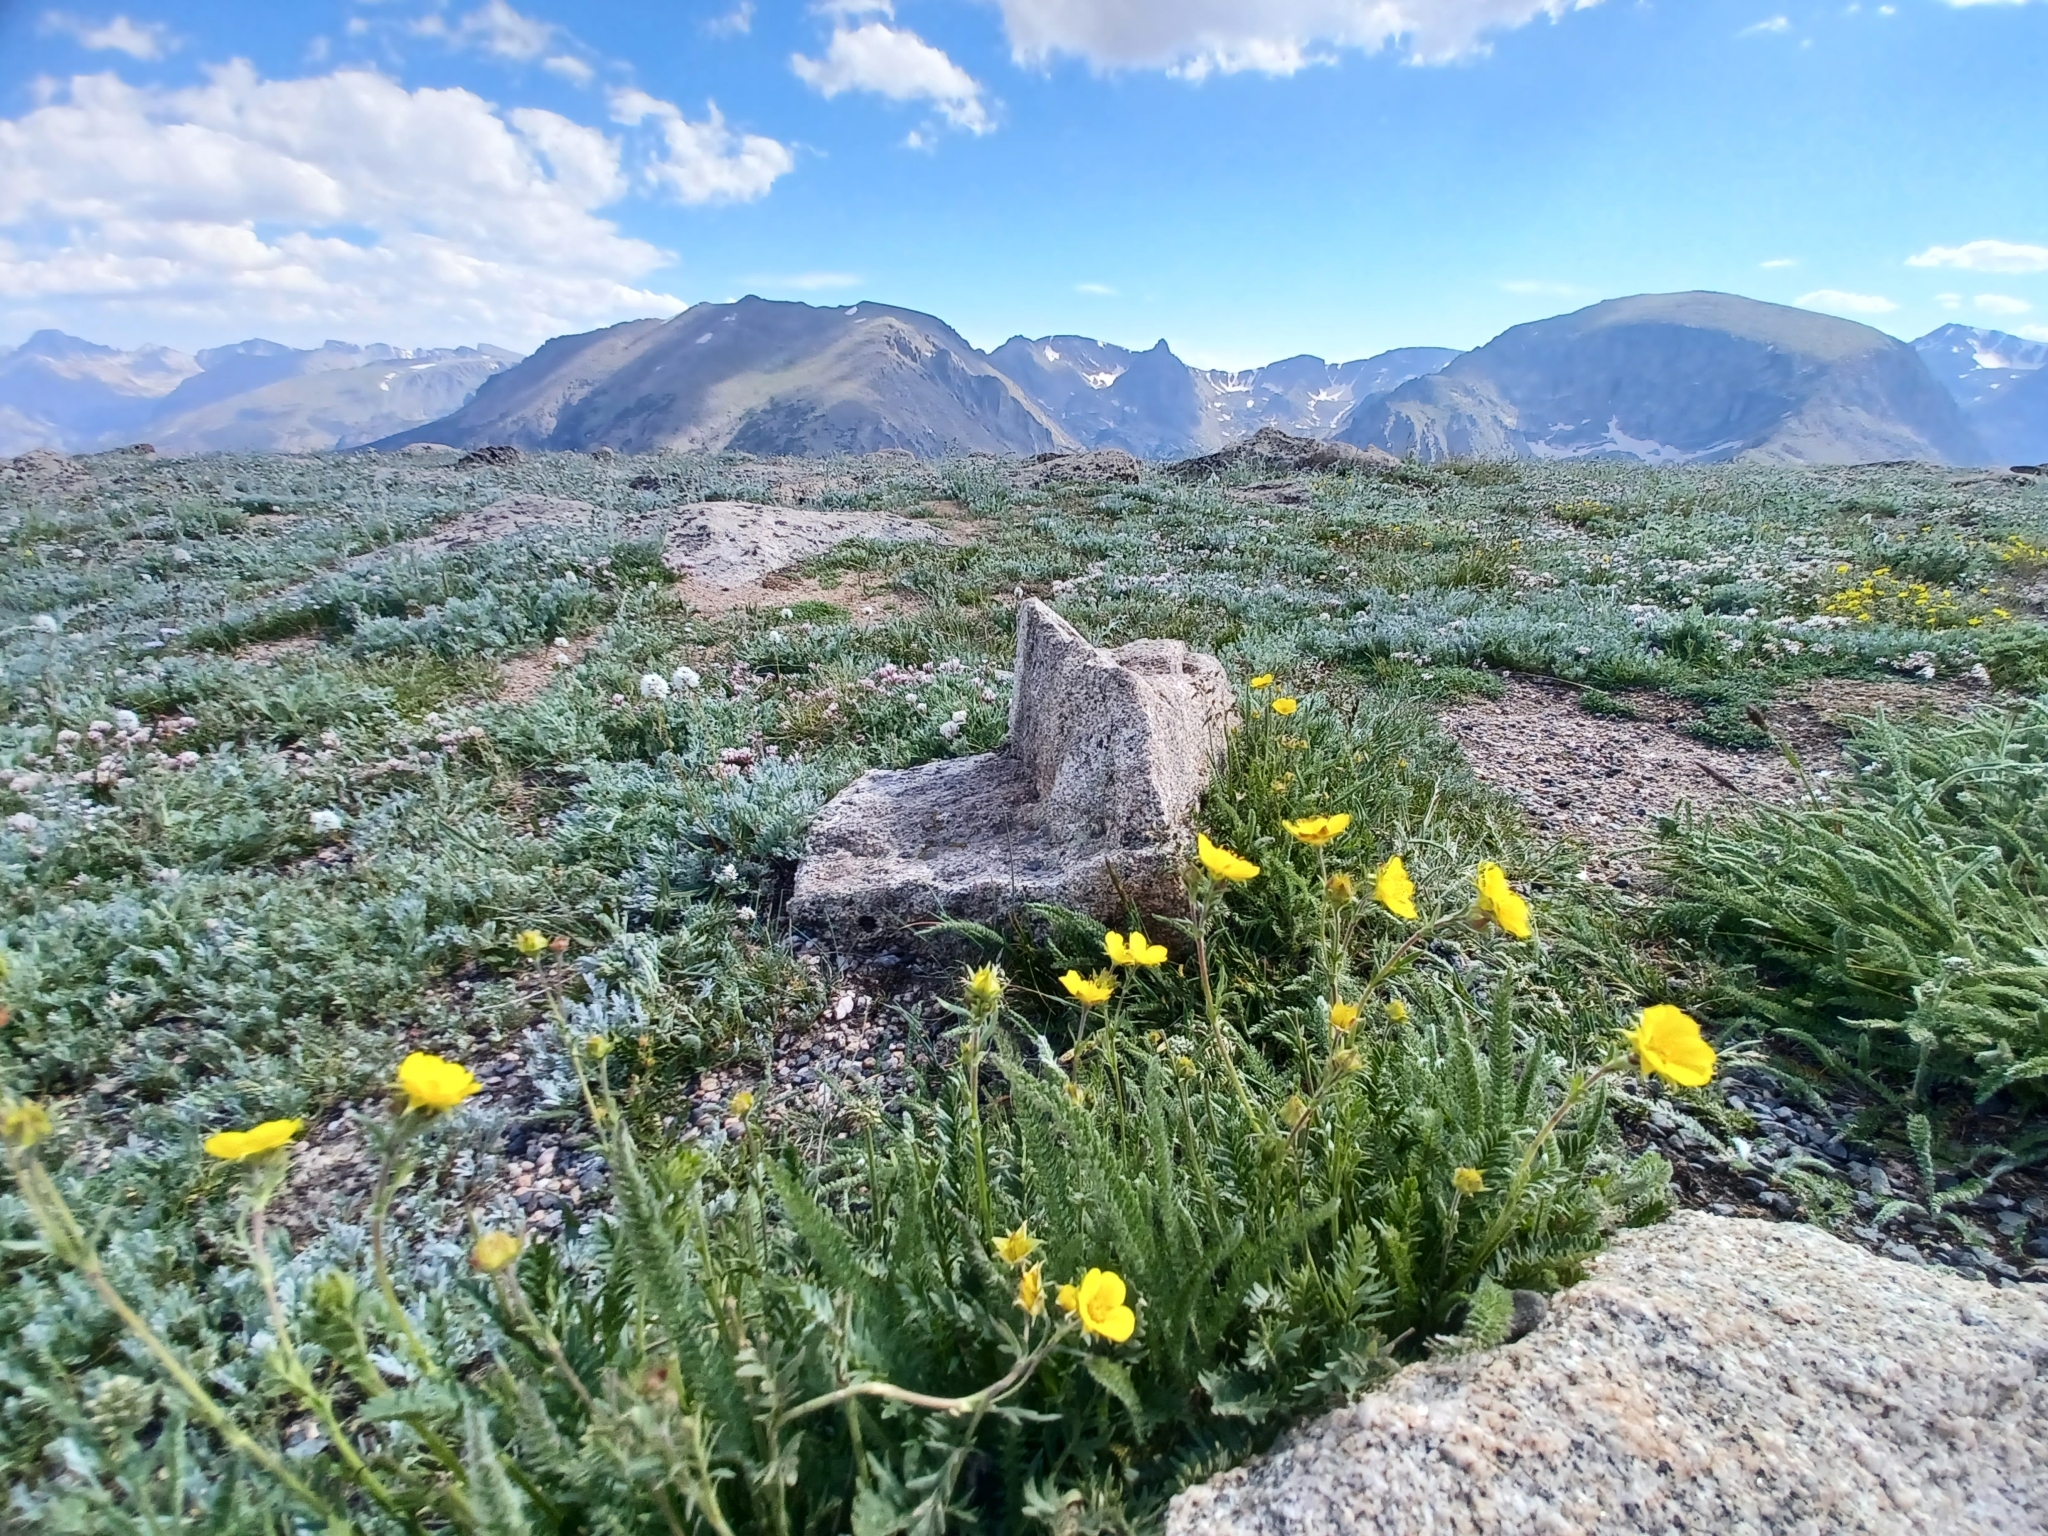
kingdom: Plantae
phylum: Tracheophyta
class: Magnoliopsida
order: Rosales
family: Rosaceae
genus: Geum
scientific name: Geum rossii
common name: Alpine avens
